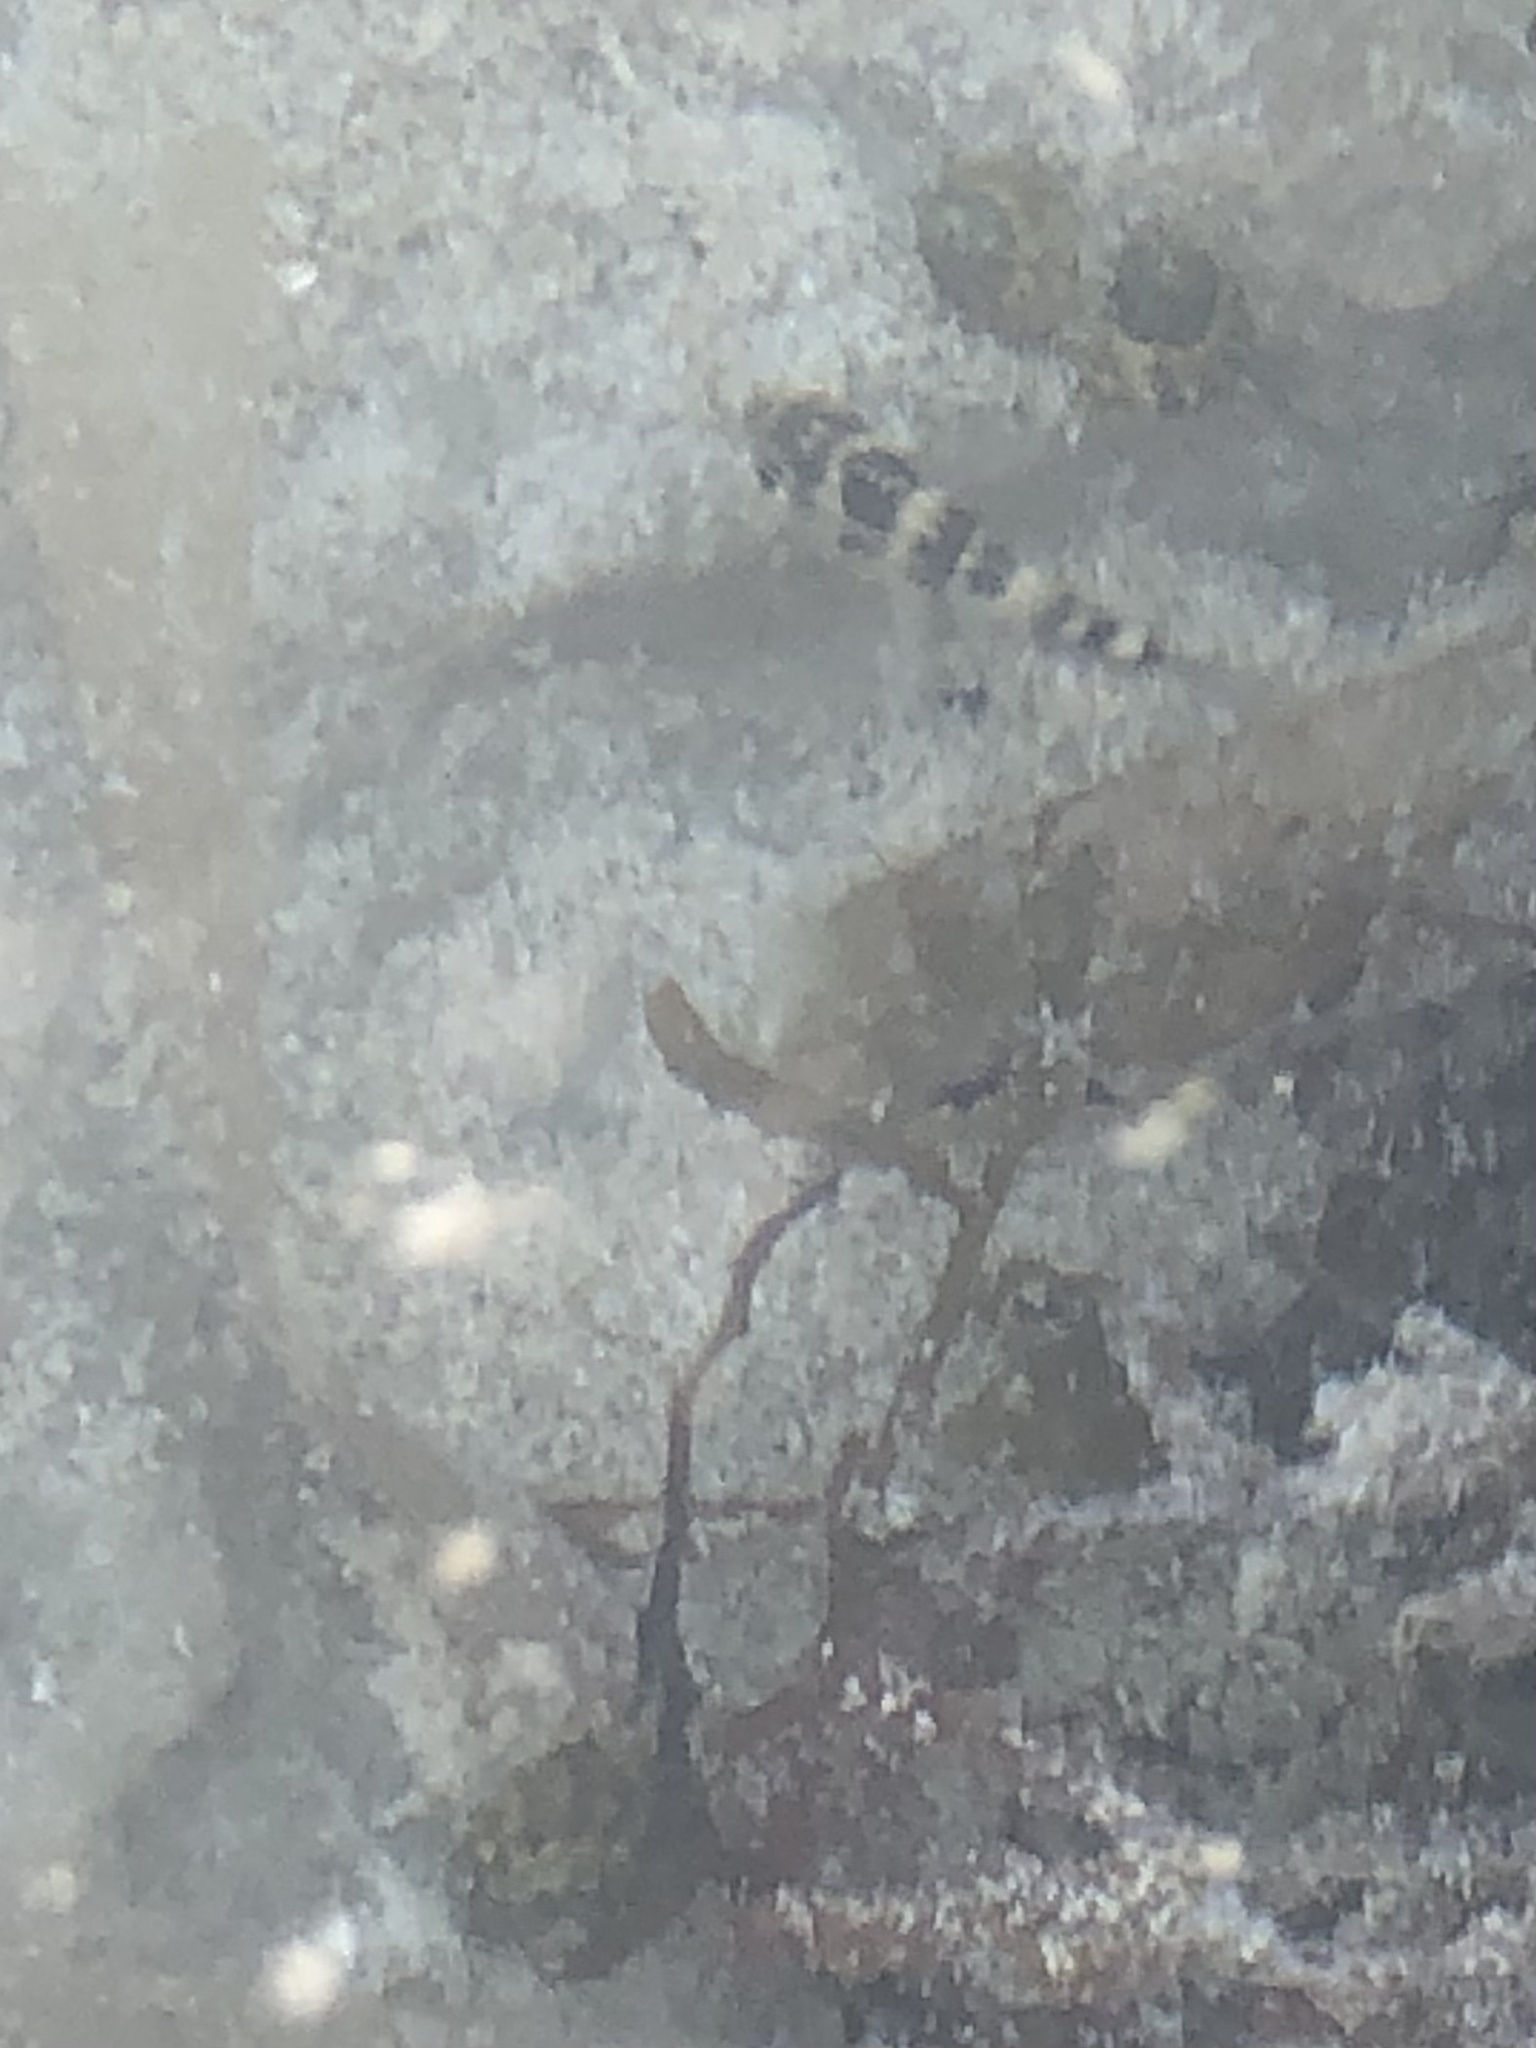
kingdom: Animalia
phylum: Chordata
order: Perciformes
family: Pomacentridae
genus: Abudefduf
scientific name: Abudefduf taurus
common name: Night sergeant
